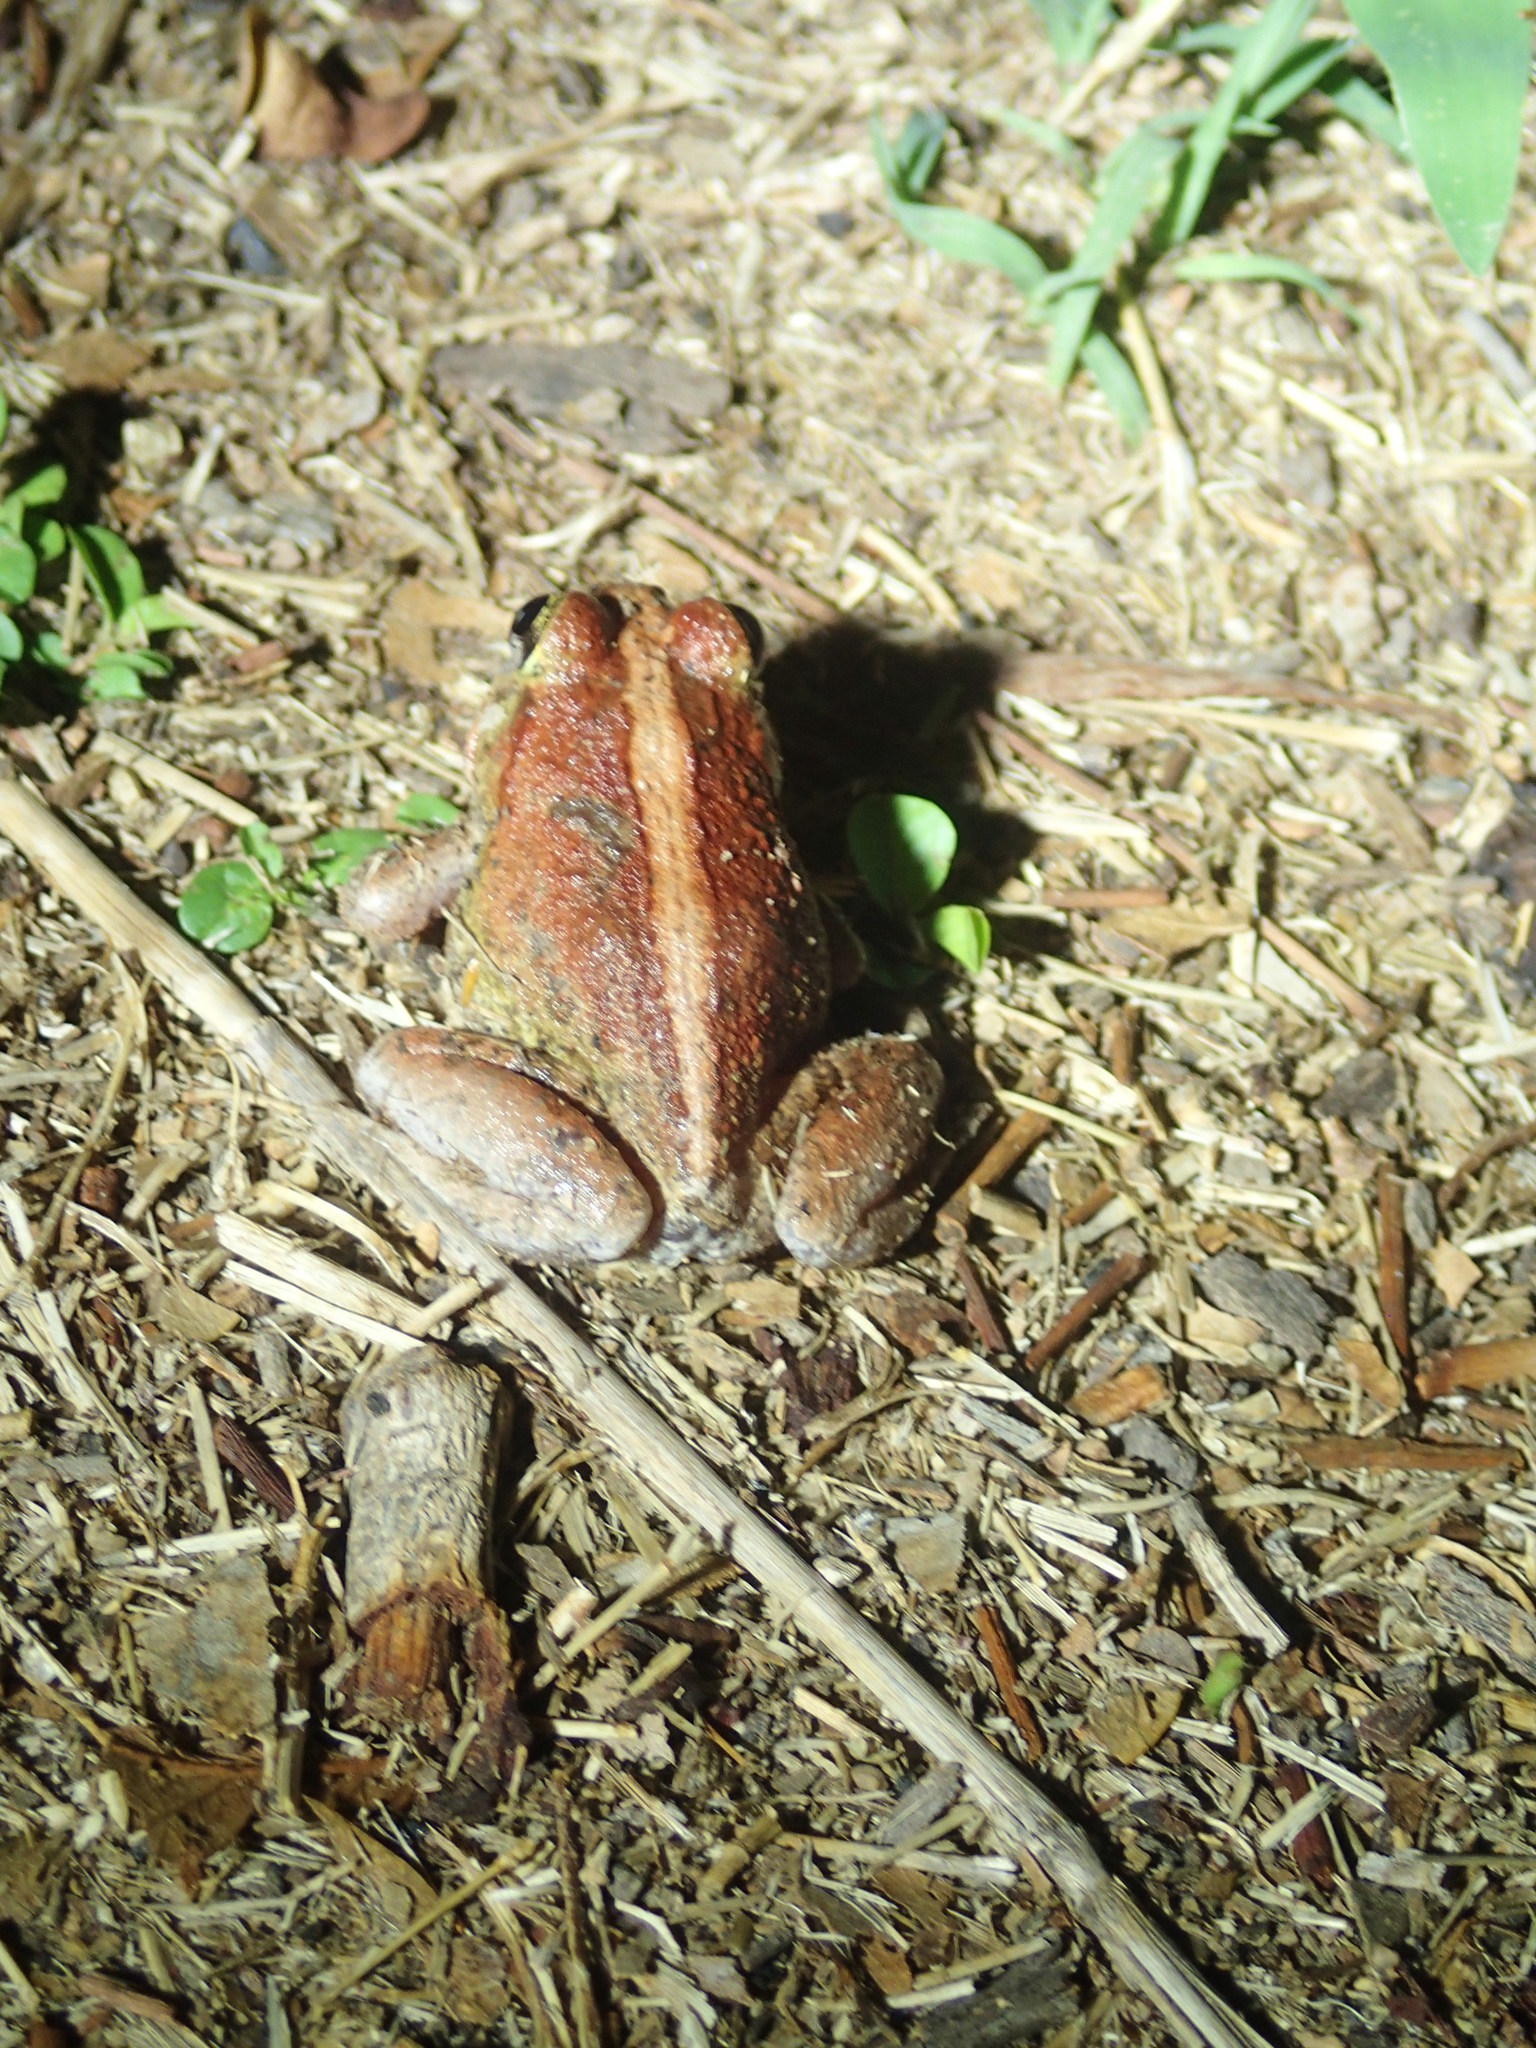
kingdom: Animalia
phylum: Chordata
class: Amphibia
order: Anura
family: Limnodynastidae
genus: Platyplectrum
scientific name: Platyplectrum ornatum
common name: Ornate burrowing frog
